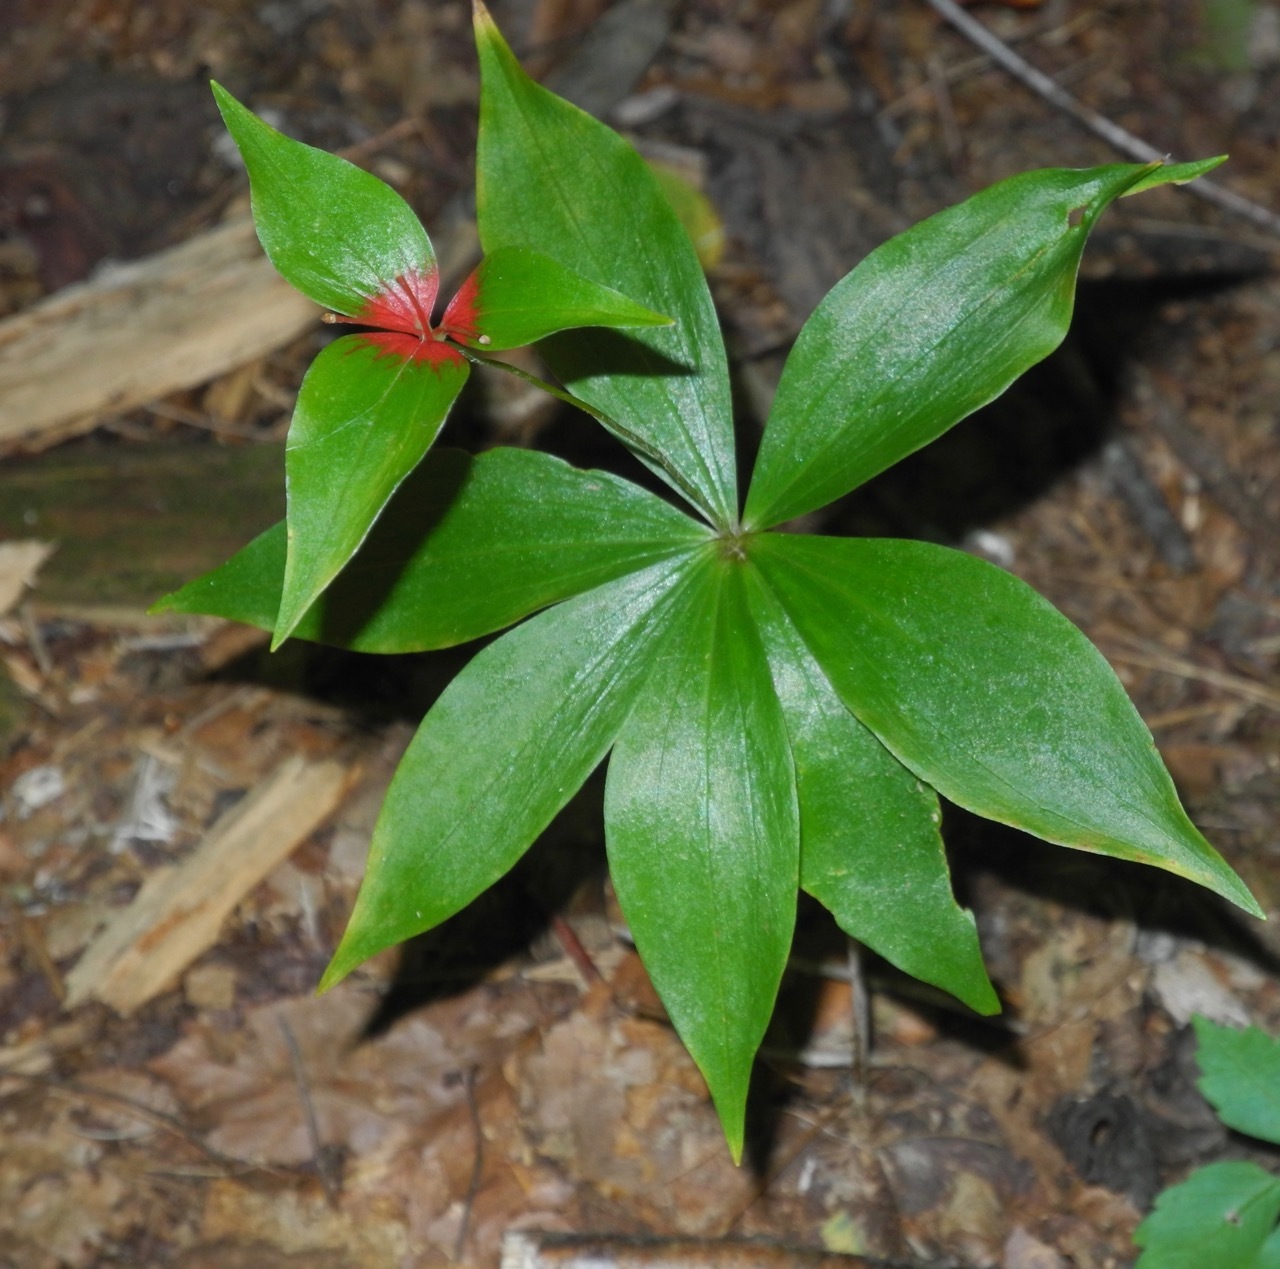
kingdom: Plantae
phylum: Tracheophyta
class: Liliopsida
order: Liliales
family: Liliaceae
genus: Medeola
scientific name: Medeola virginiana
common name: Indian cucumber-root
